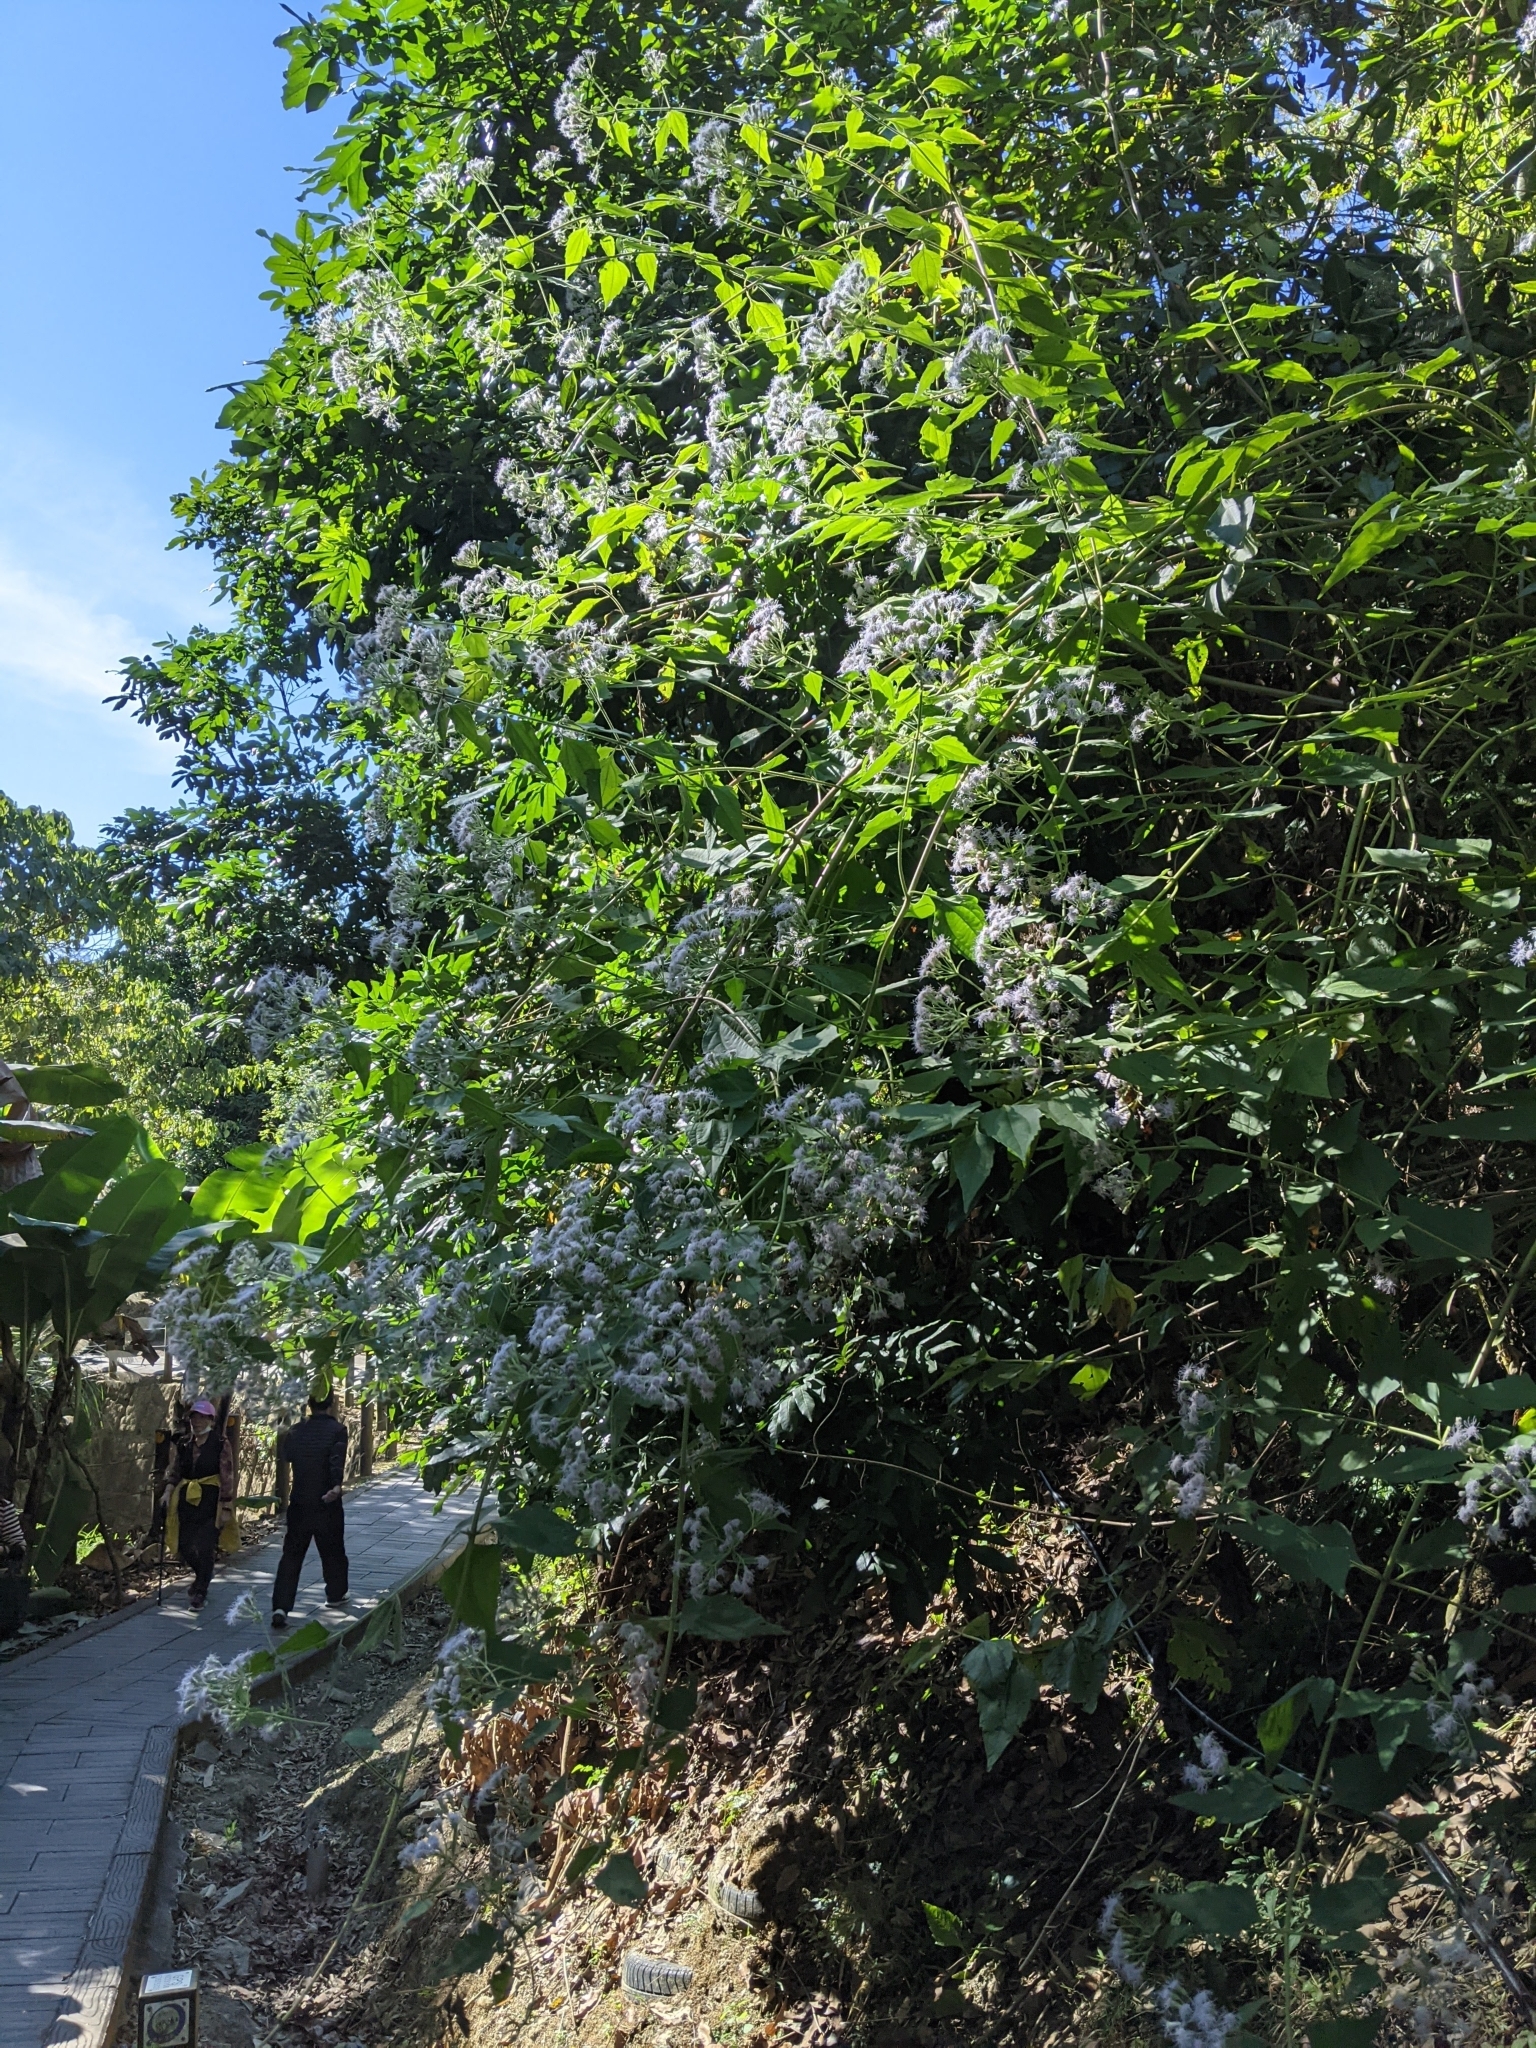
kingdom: Plantae
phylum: Tracheophyta
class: Magnoliopsida
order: Asterales
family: Asteraceae
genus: Chromolaena
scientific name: Chromolaena odorata
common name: Siamweed
